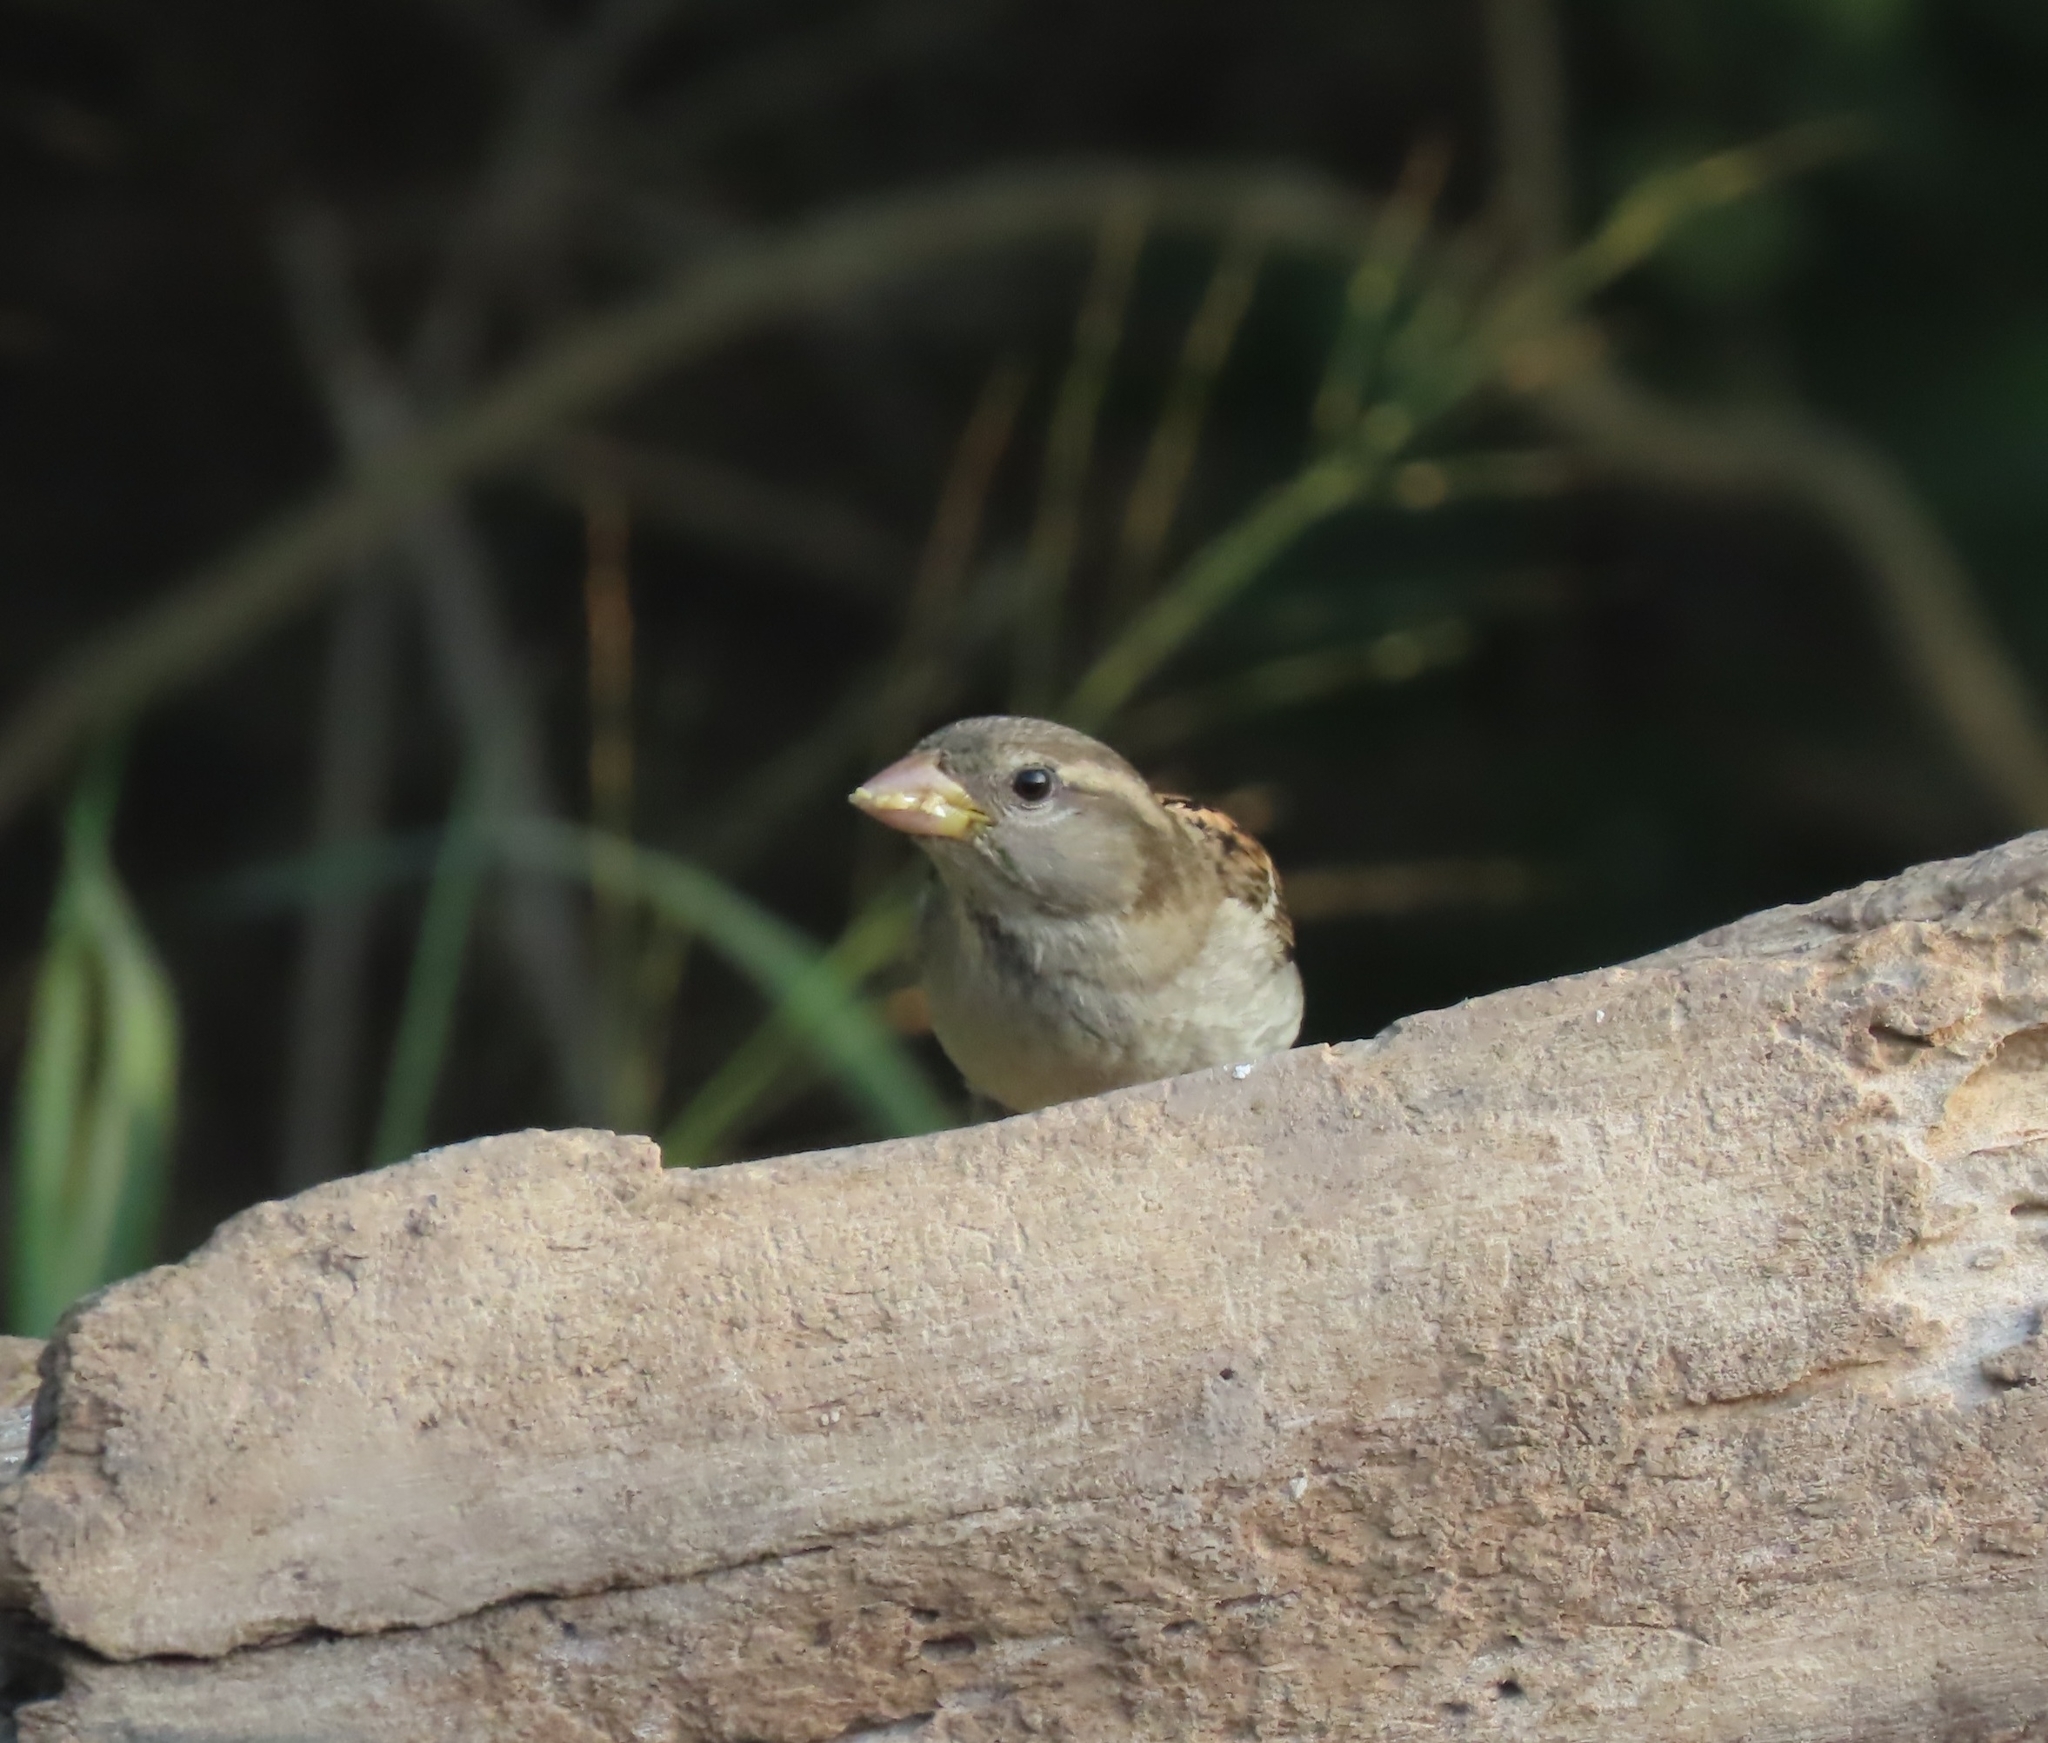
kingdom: Animalia
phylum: Chordata
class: Aves
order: Passeriformes
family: Passeridae
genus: Passer
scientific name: Passer domesticus
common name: House sparrow
